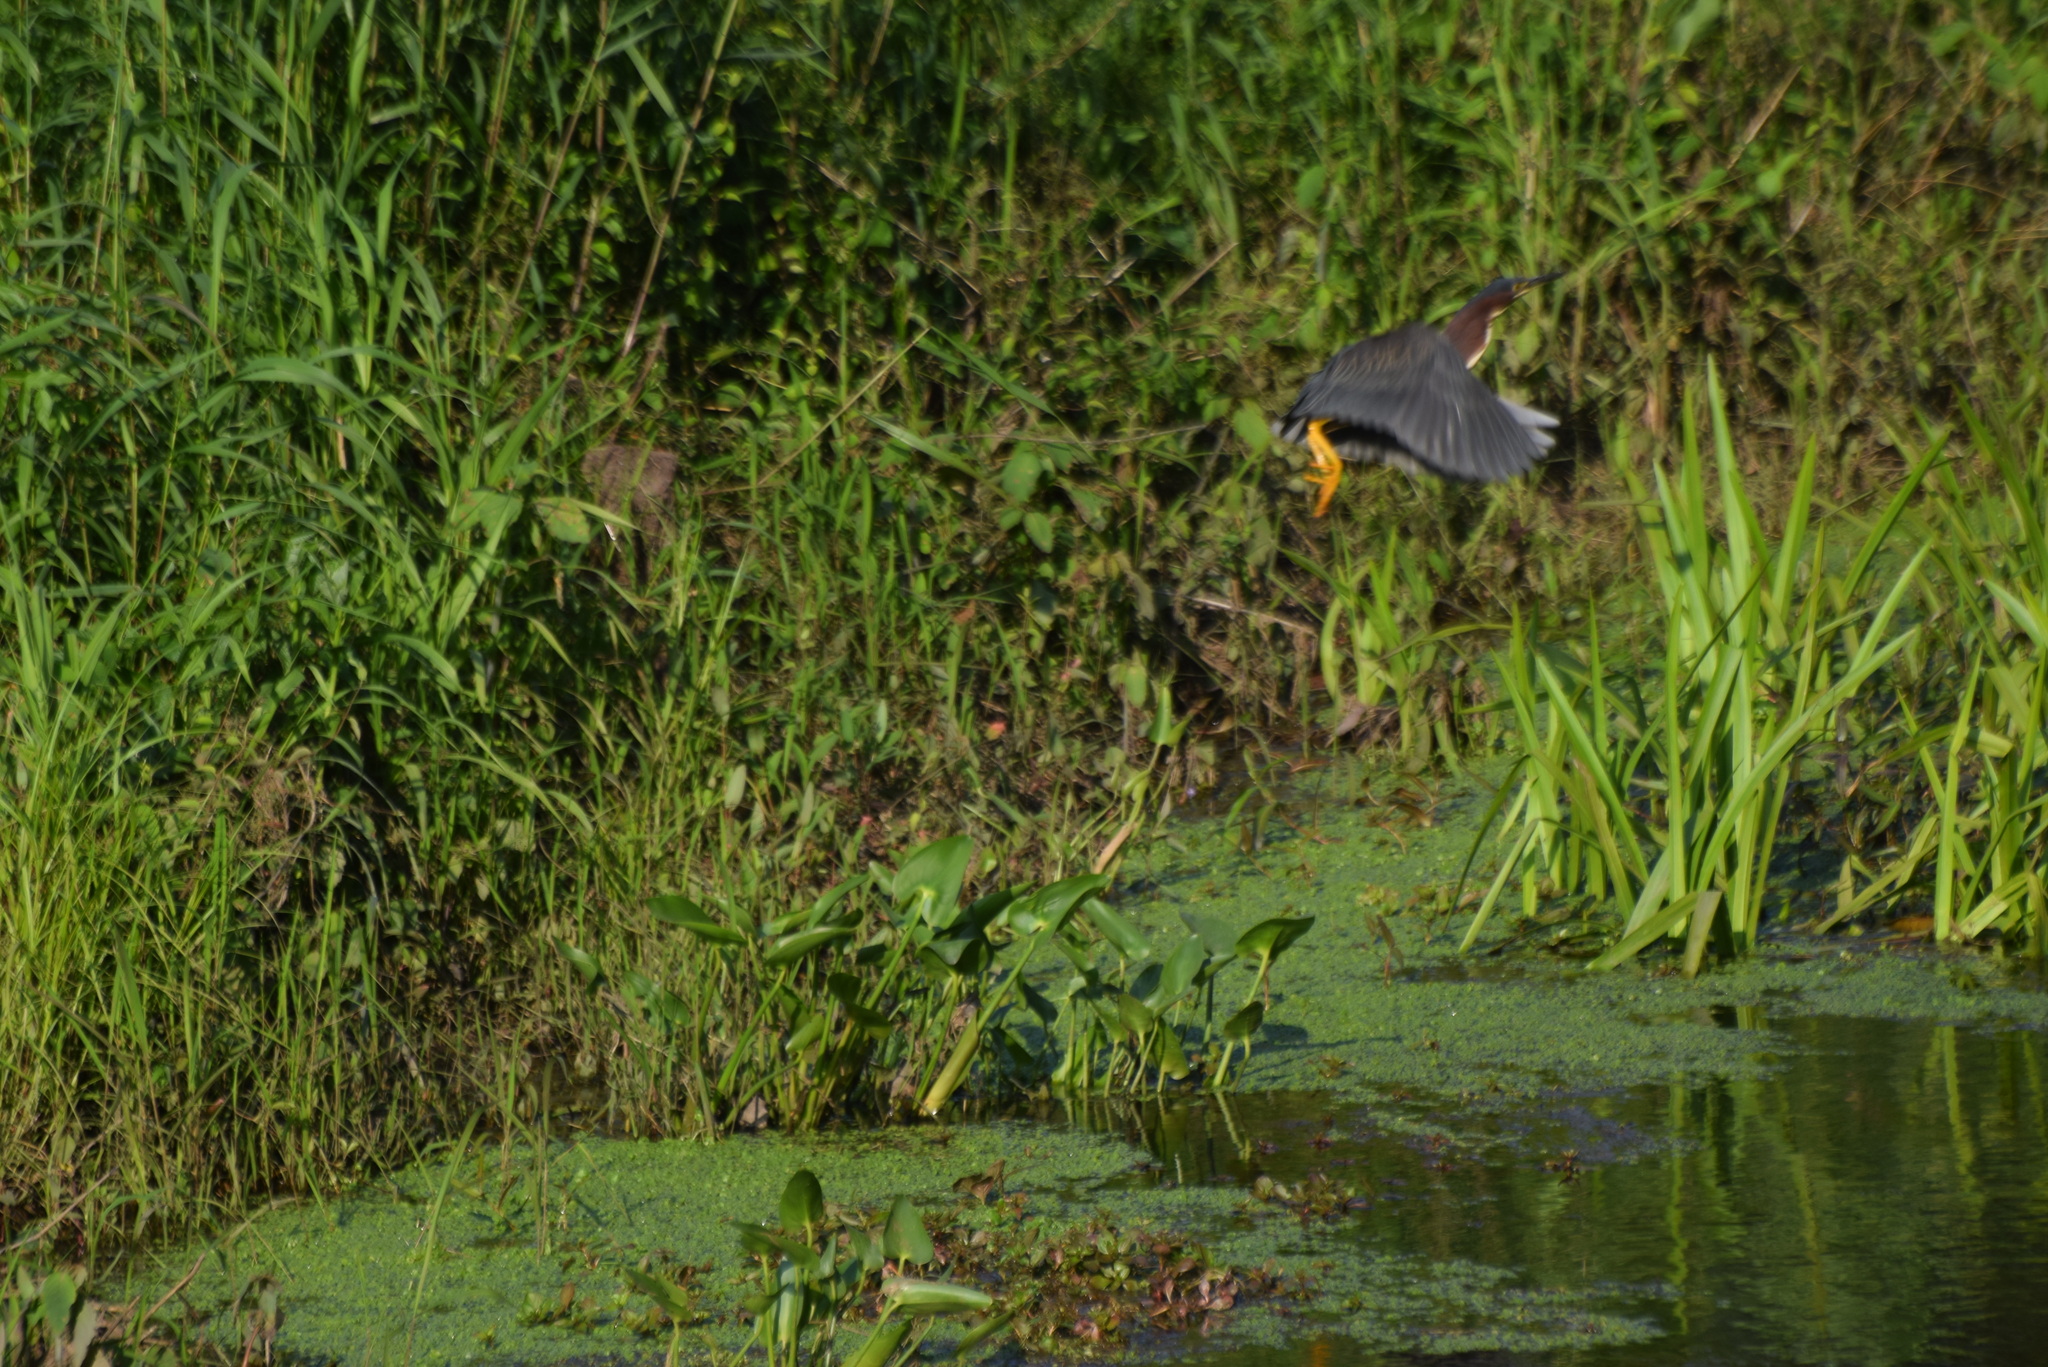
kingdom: Animalia
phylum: Chordata
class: Aves
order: Pelecaniformes
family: Ardeidae
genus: Butorides
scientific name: Butorides virescens
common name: Green heron
